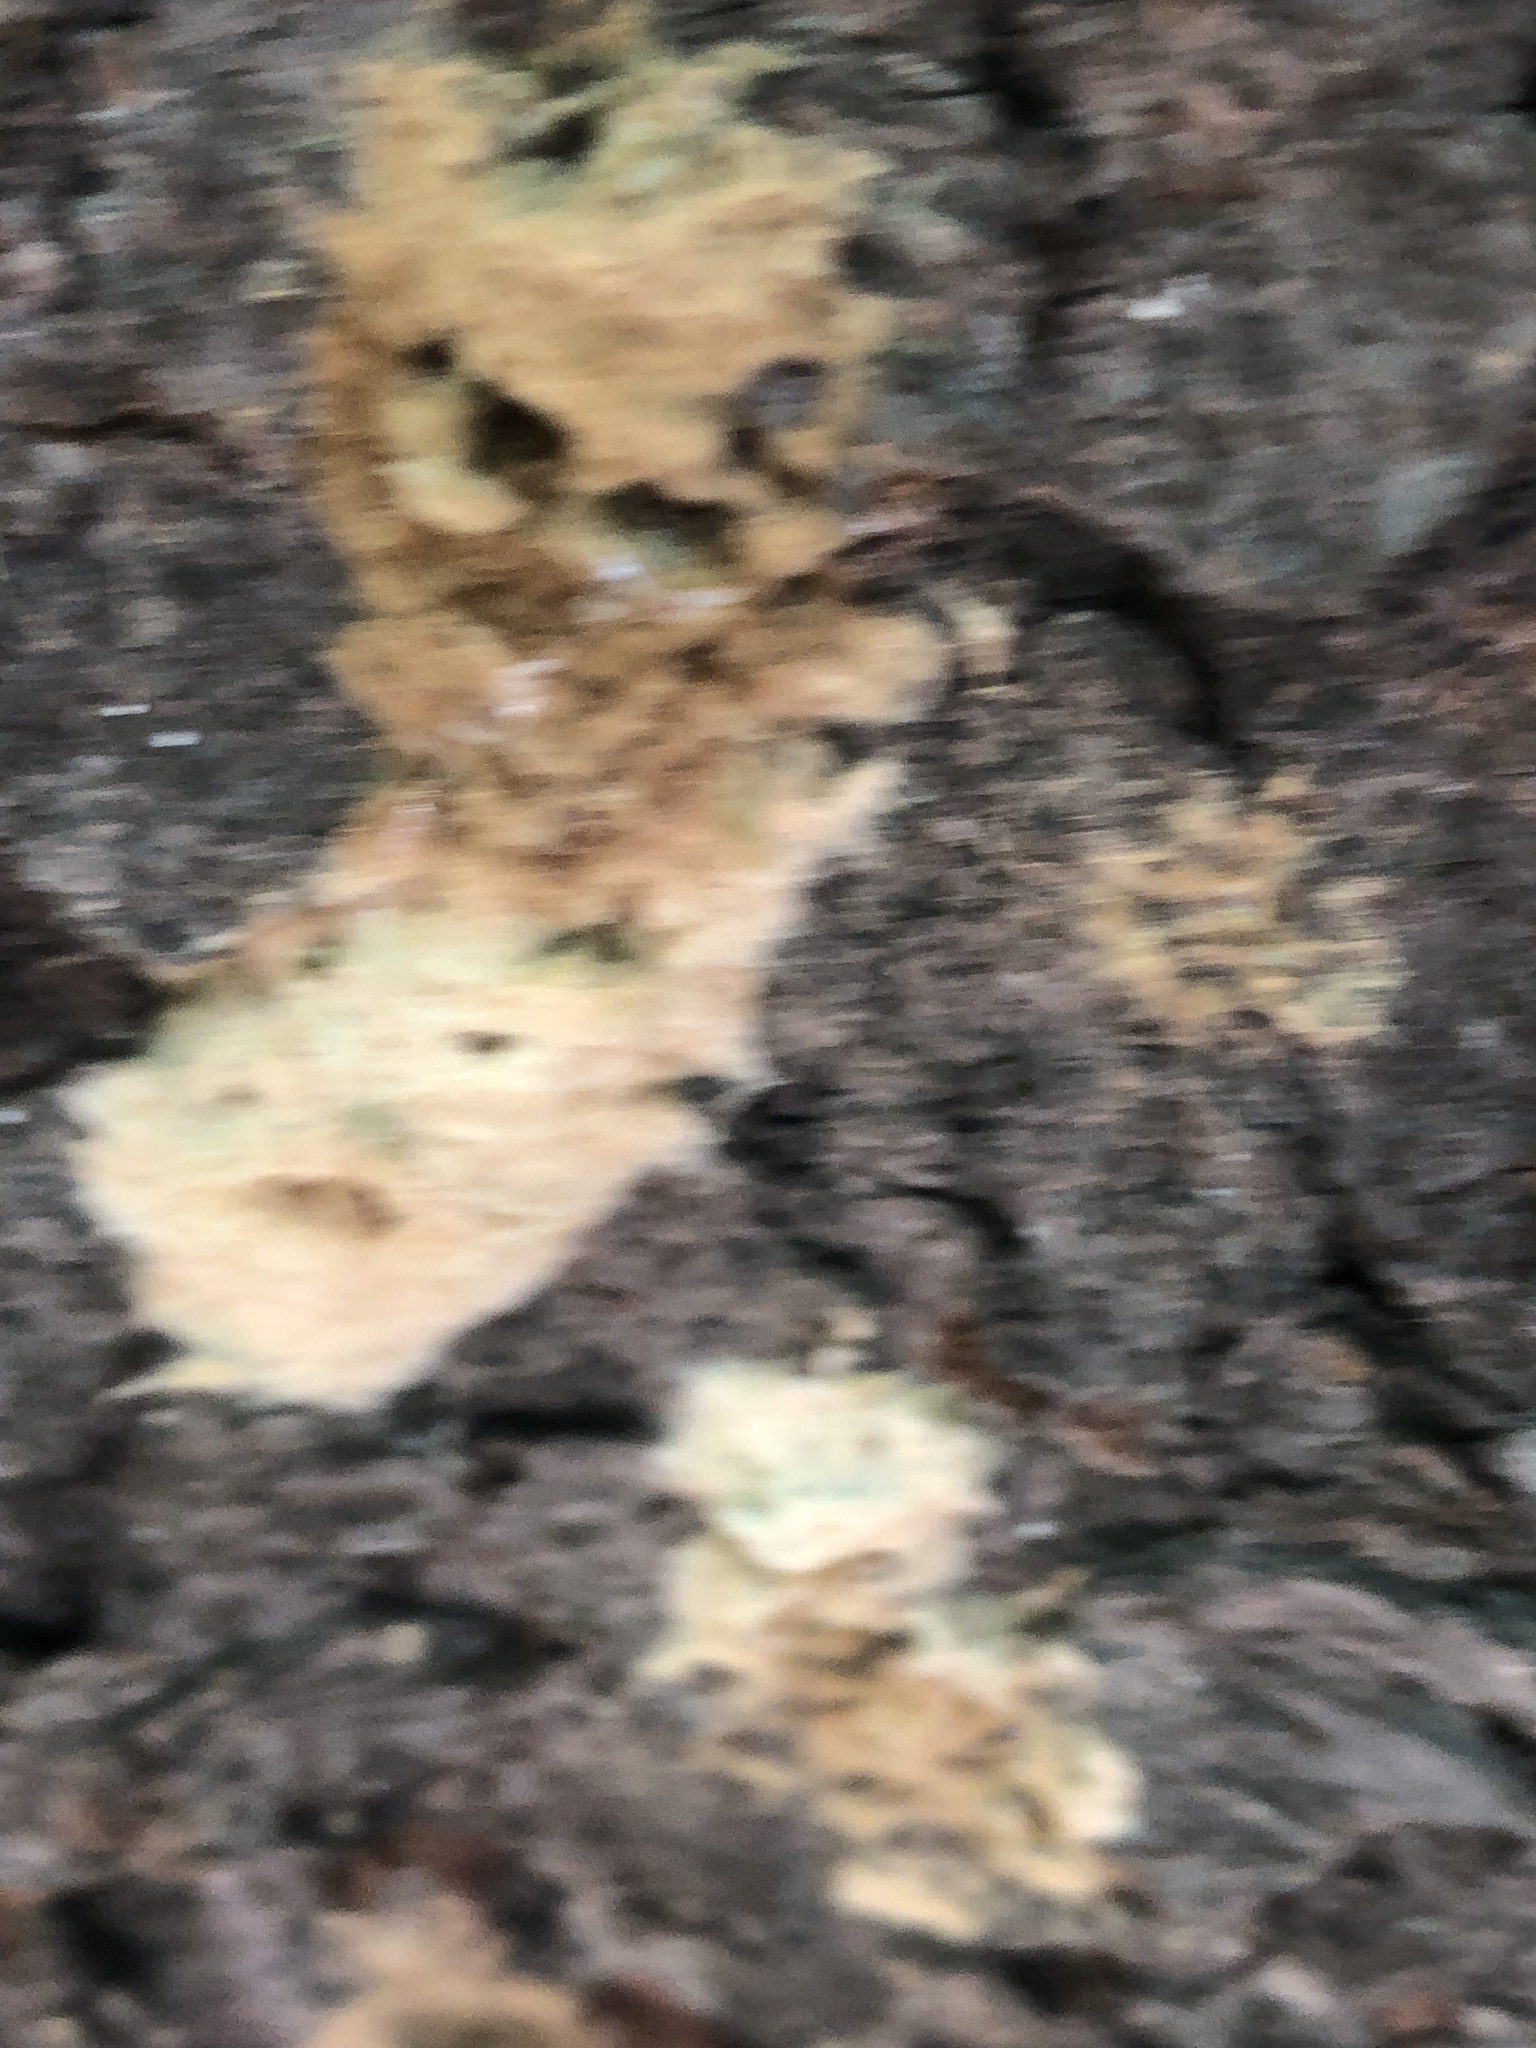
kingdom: Animalia
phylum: Arthropoda
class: Insecta
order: Lepidoptera
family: Erebidae
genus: Lymantria
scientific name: Lymantria dispar
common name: Gypsy moth
